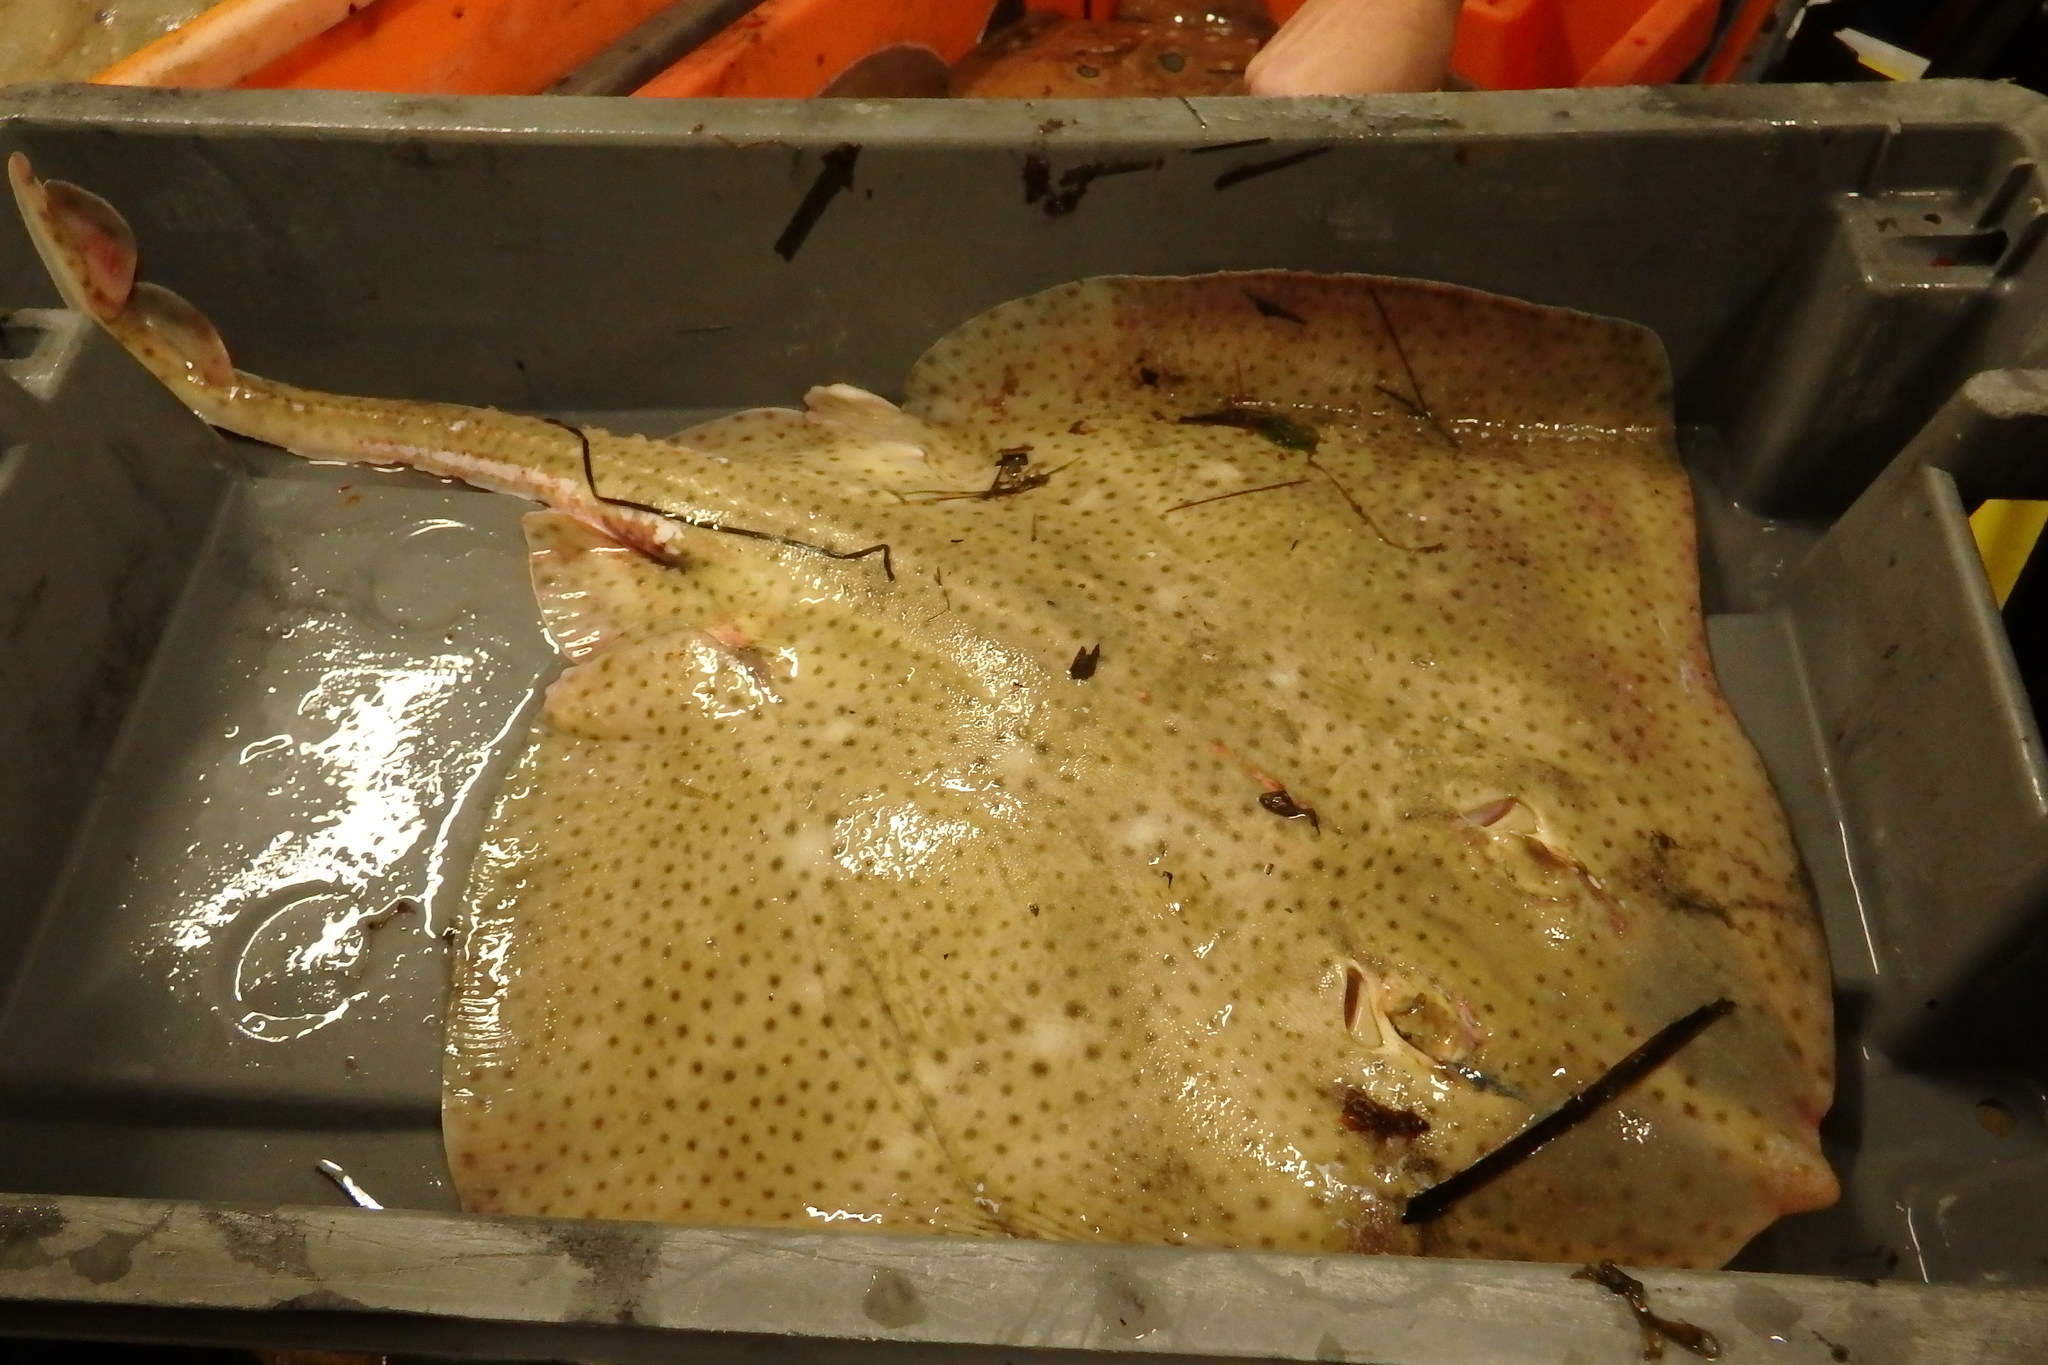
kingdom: Animalia
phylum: Chordata
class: Elasmobranchii
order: Rajiformes
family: Rajidae
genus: Raja
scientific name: Raja brachyura
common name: Blonde ray
